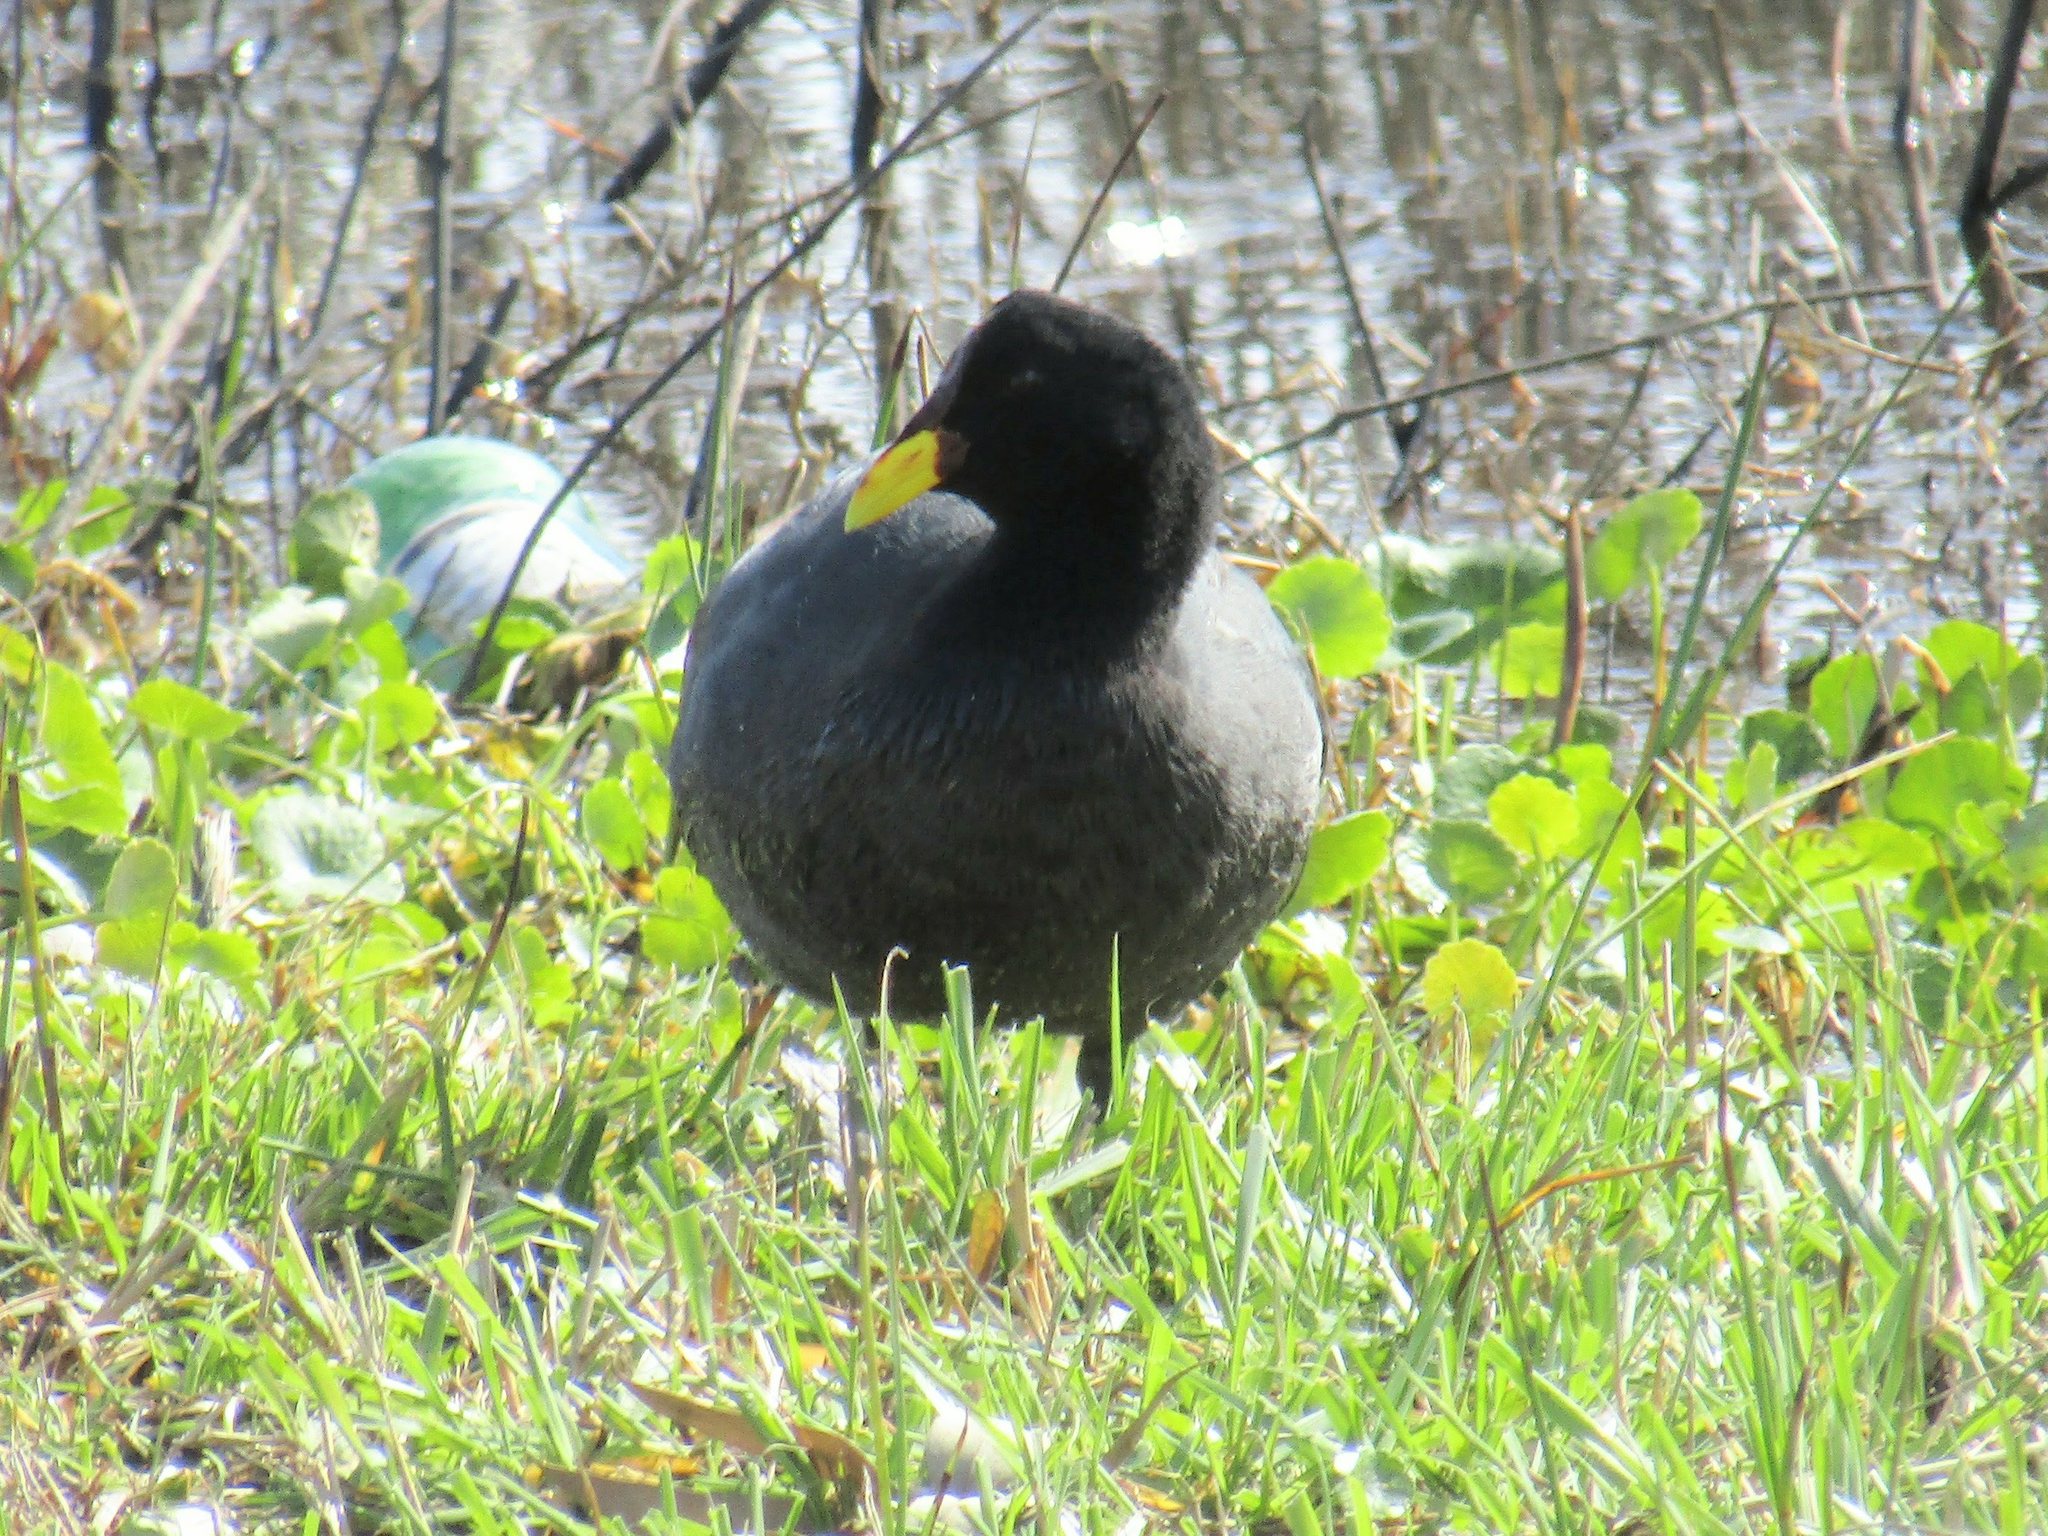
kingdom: Animalia
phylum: Chordata
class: Aves
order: Gruiformes
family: Rallidae
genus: Fulica
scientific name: Fulica rufifrons
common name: Red-fronted coot
